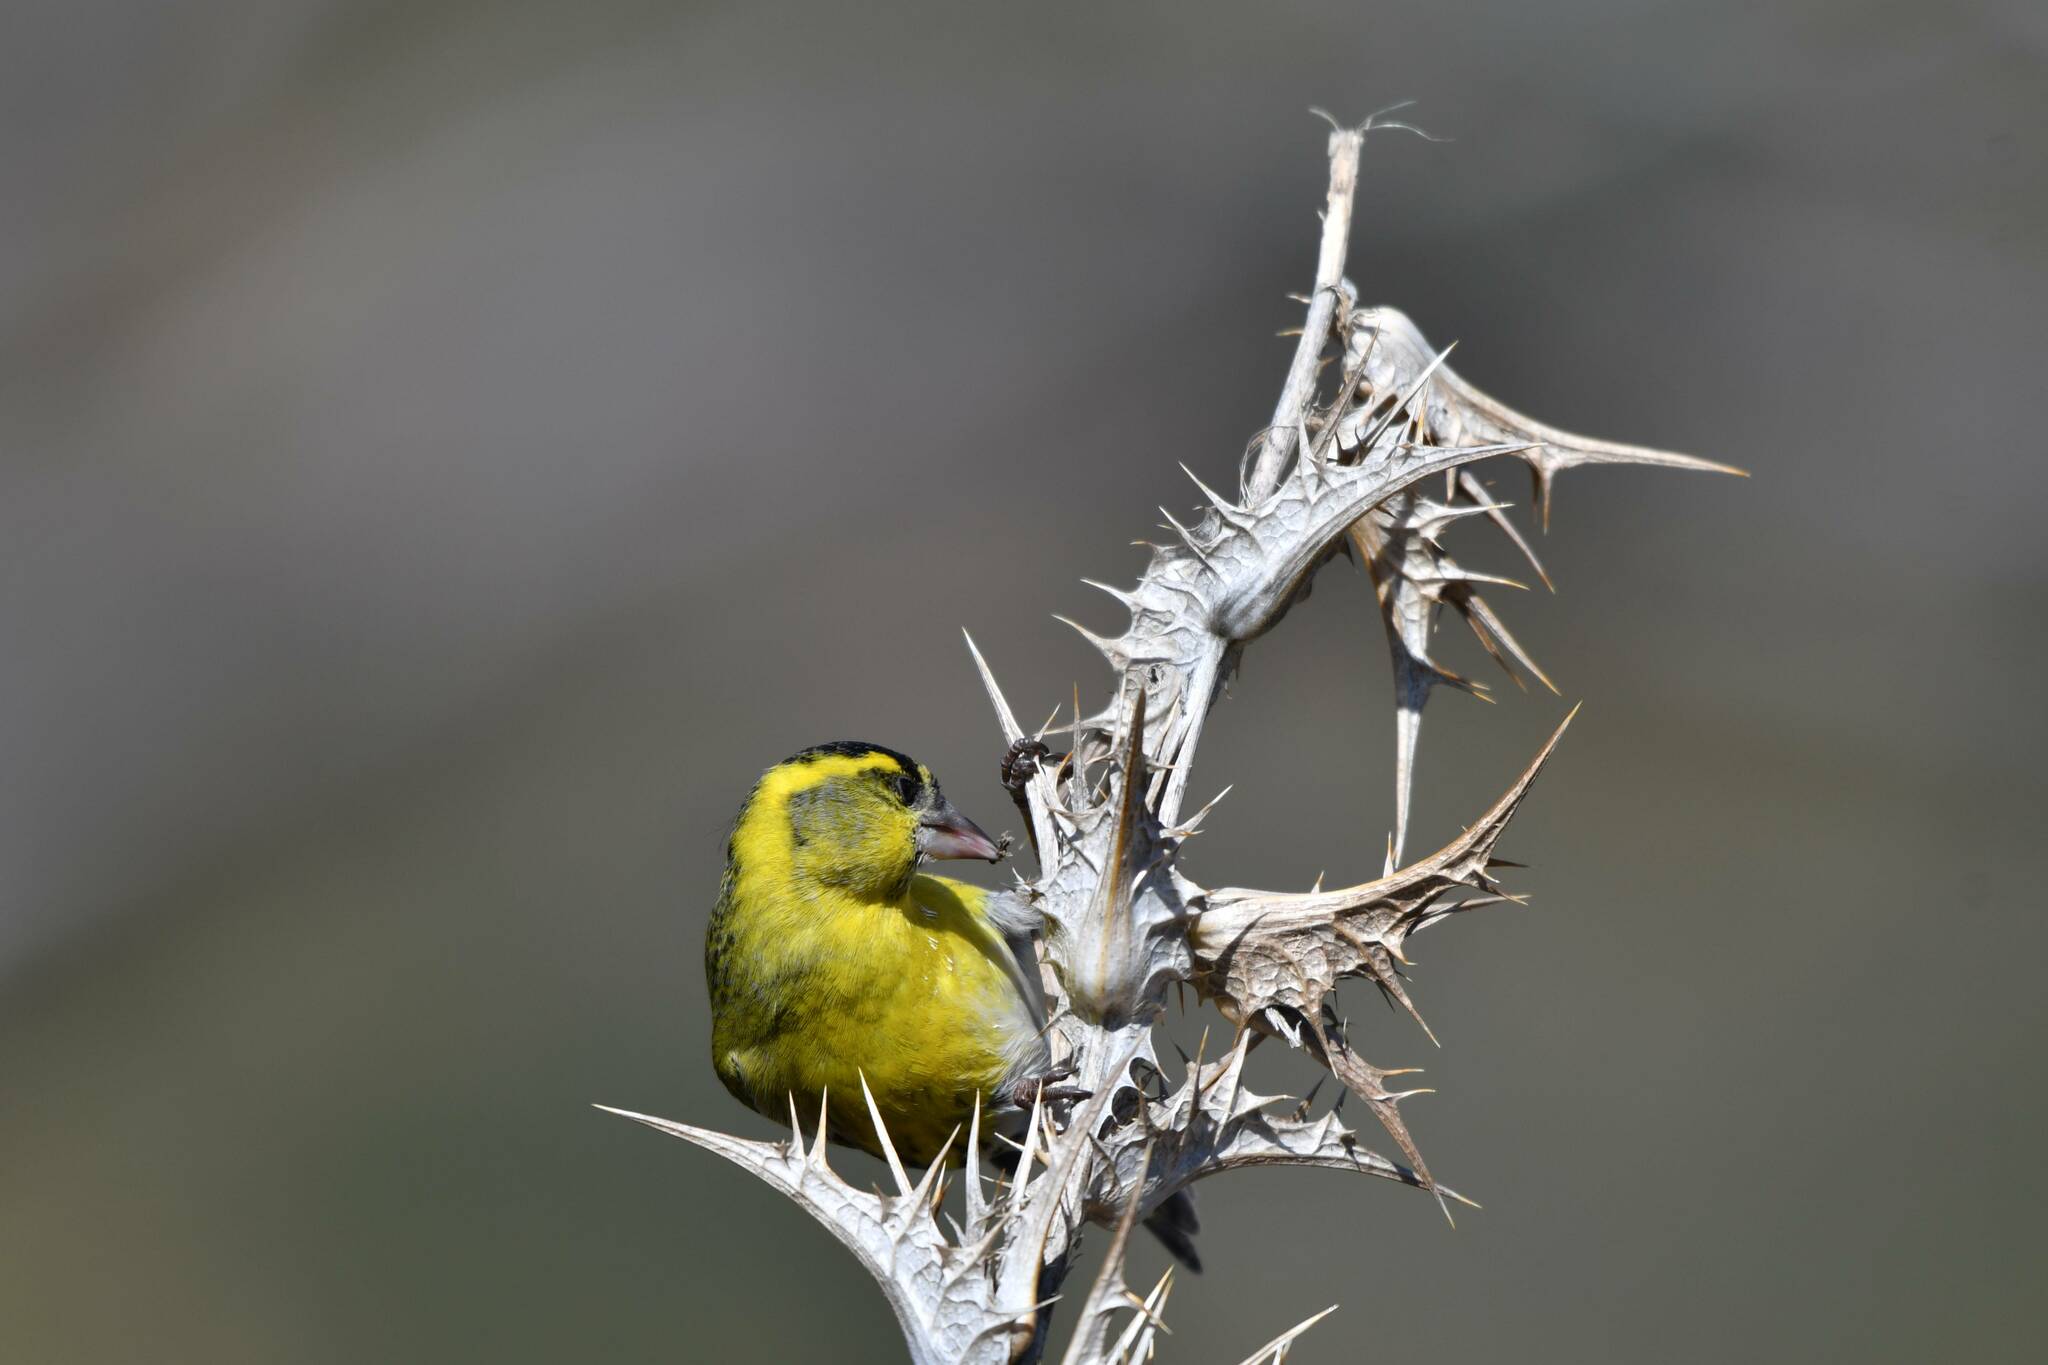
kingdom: Animalia
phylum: Chordata
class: Aves
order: Passeriformes
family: Fringillidae
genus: Spinus
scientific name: Spinus spinus
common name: Eurasian siskin
